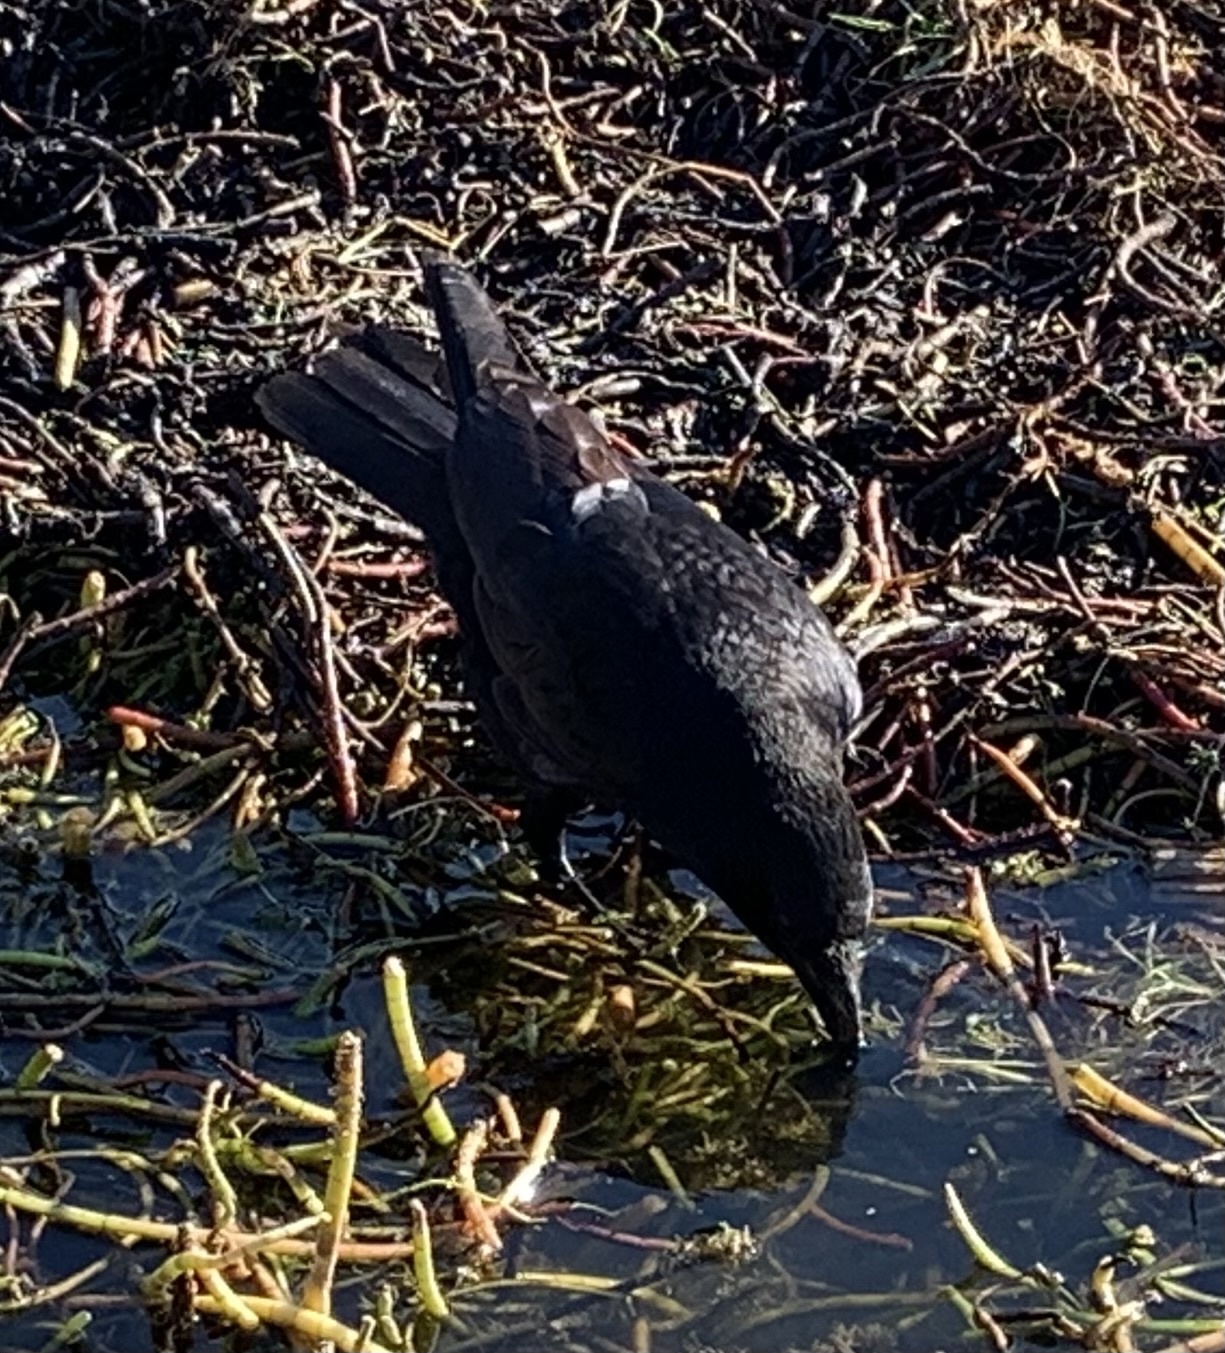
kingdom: Animalia
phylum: Chordata
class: Aves
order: Passeriformes
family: Corvidae
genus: Corvus
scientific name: Corvus corone
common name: Carrion crow
